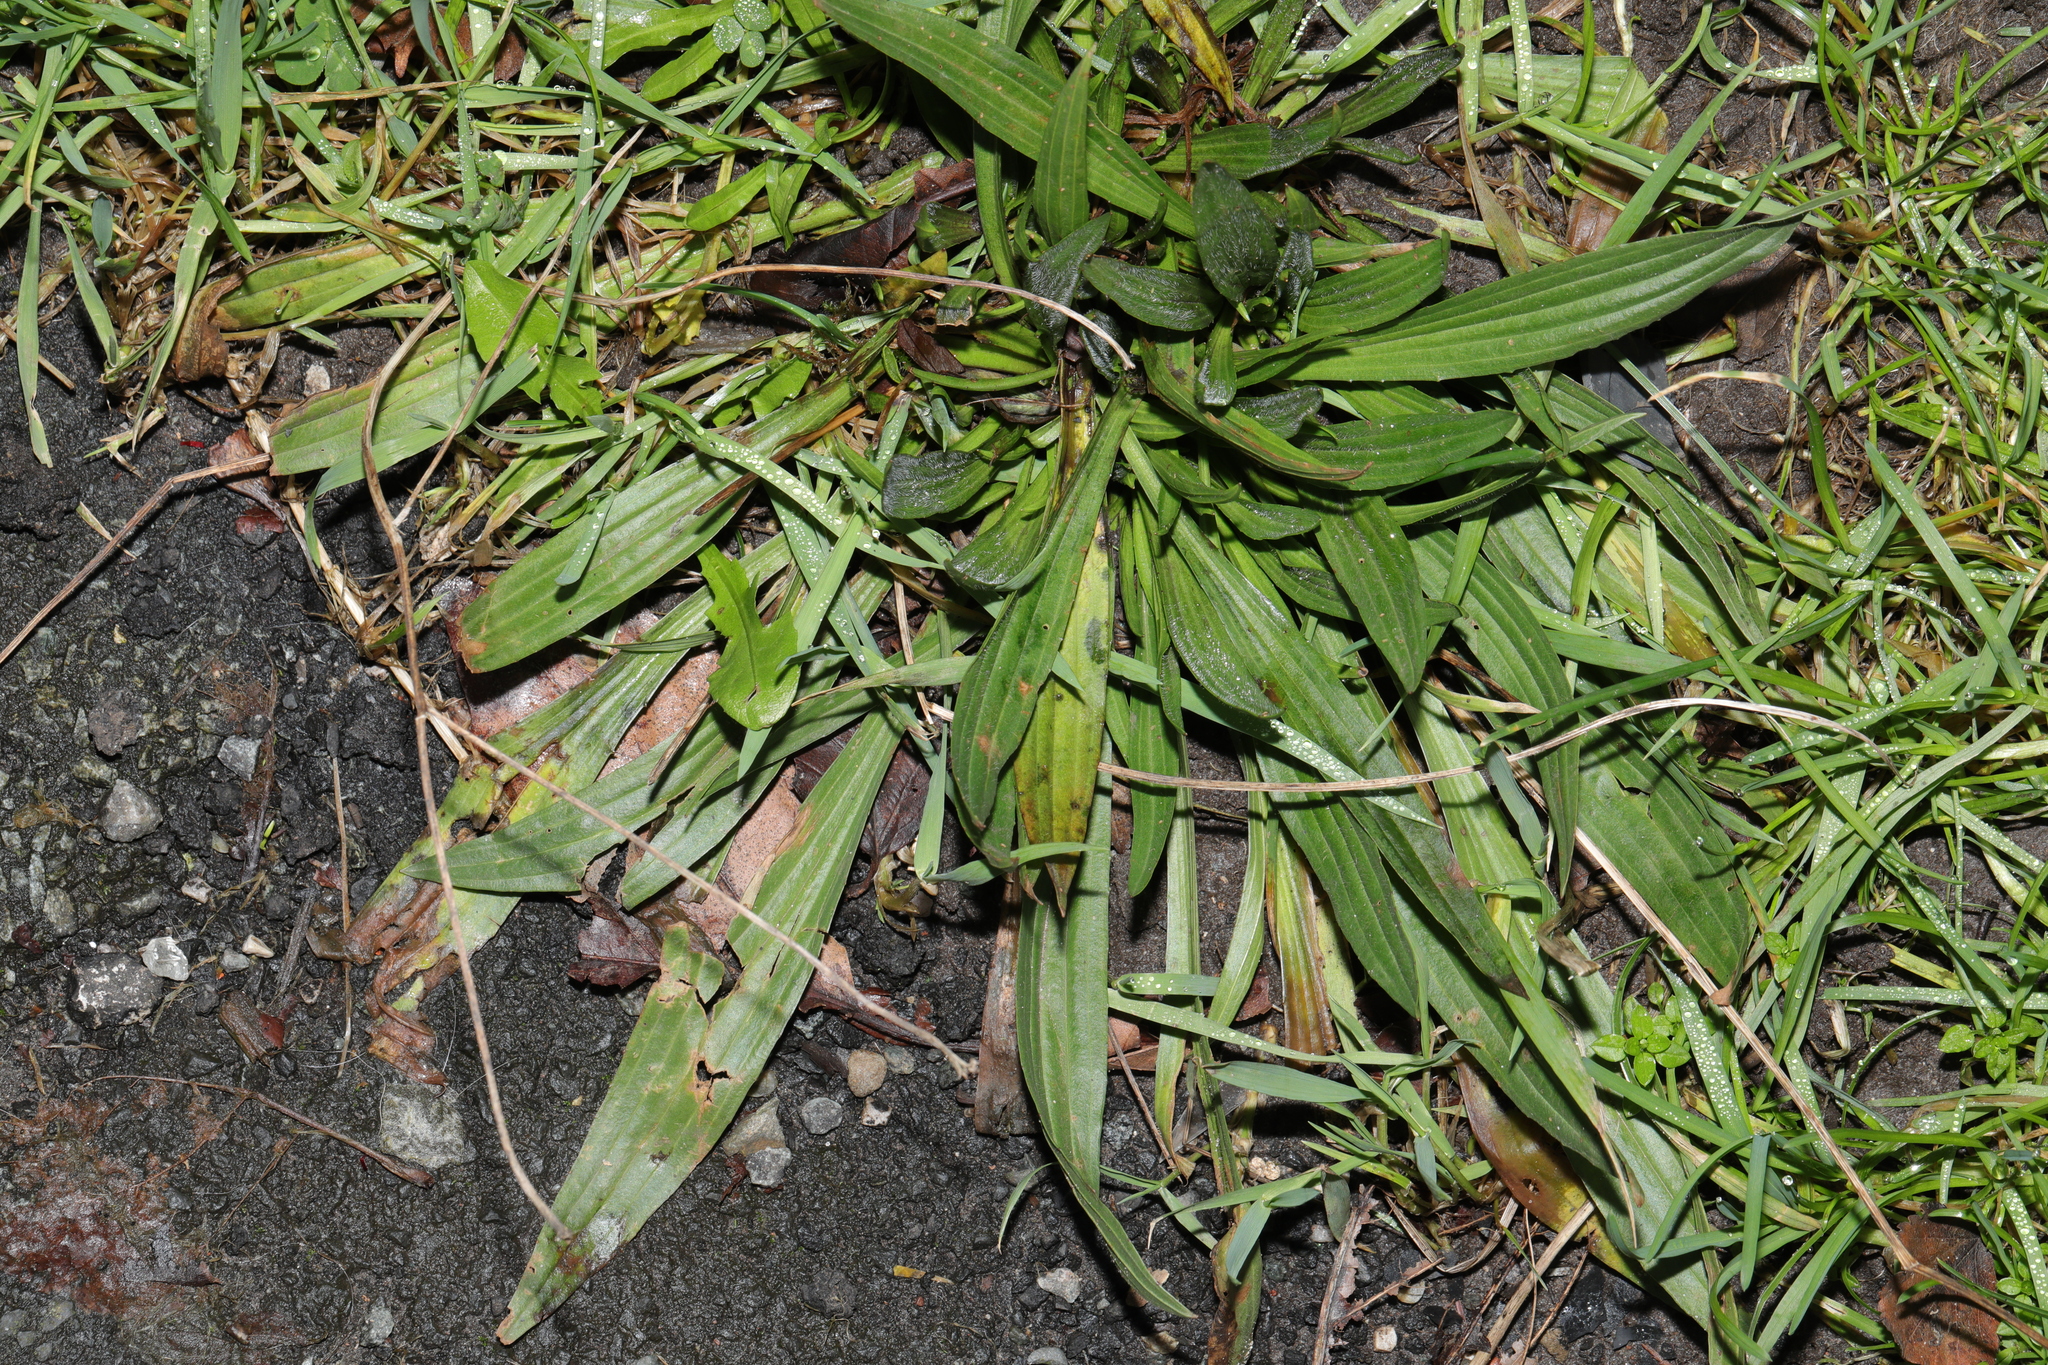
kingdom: Plantae
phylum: Tracheophyta
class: Magnoliopsida
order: Lamiales
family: Plantaginaceae
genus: Plantago
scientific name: Plantago lanceolata
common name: Ribwort plantain
